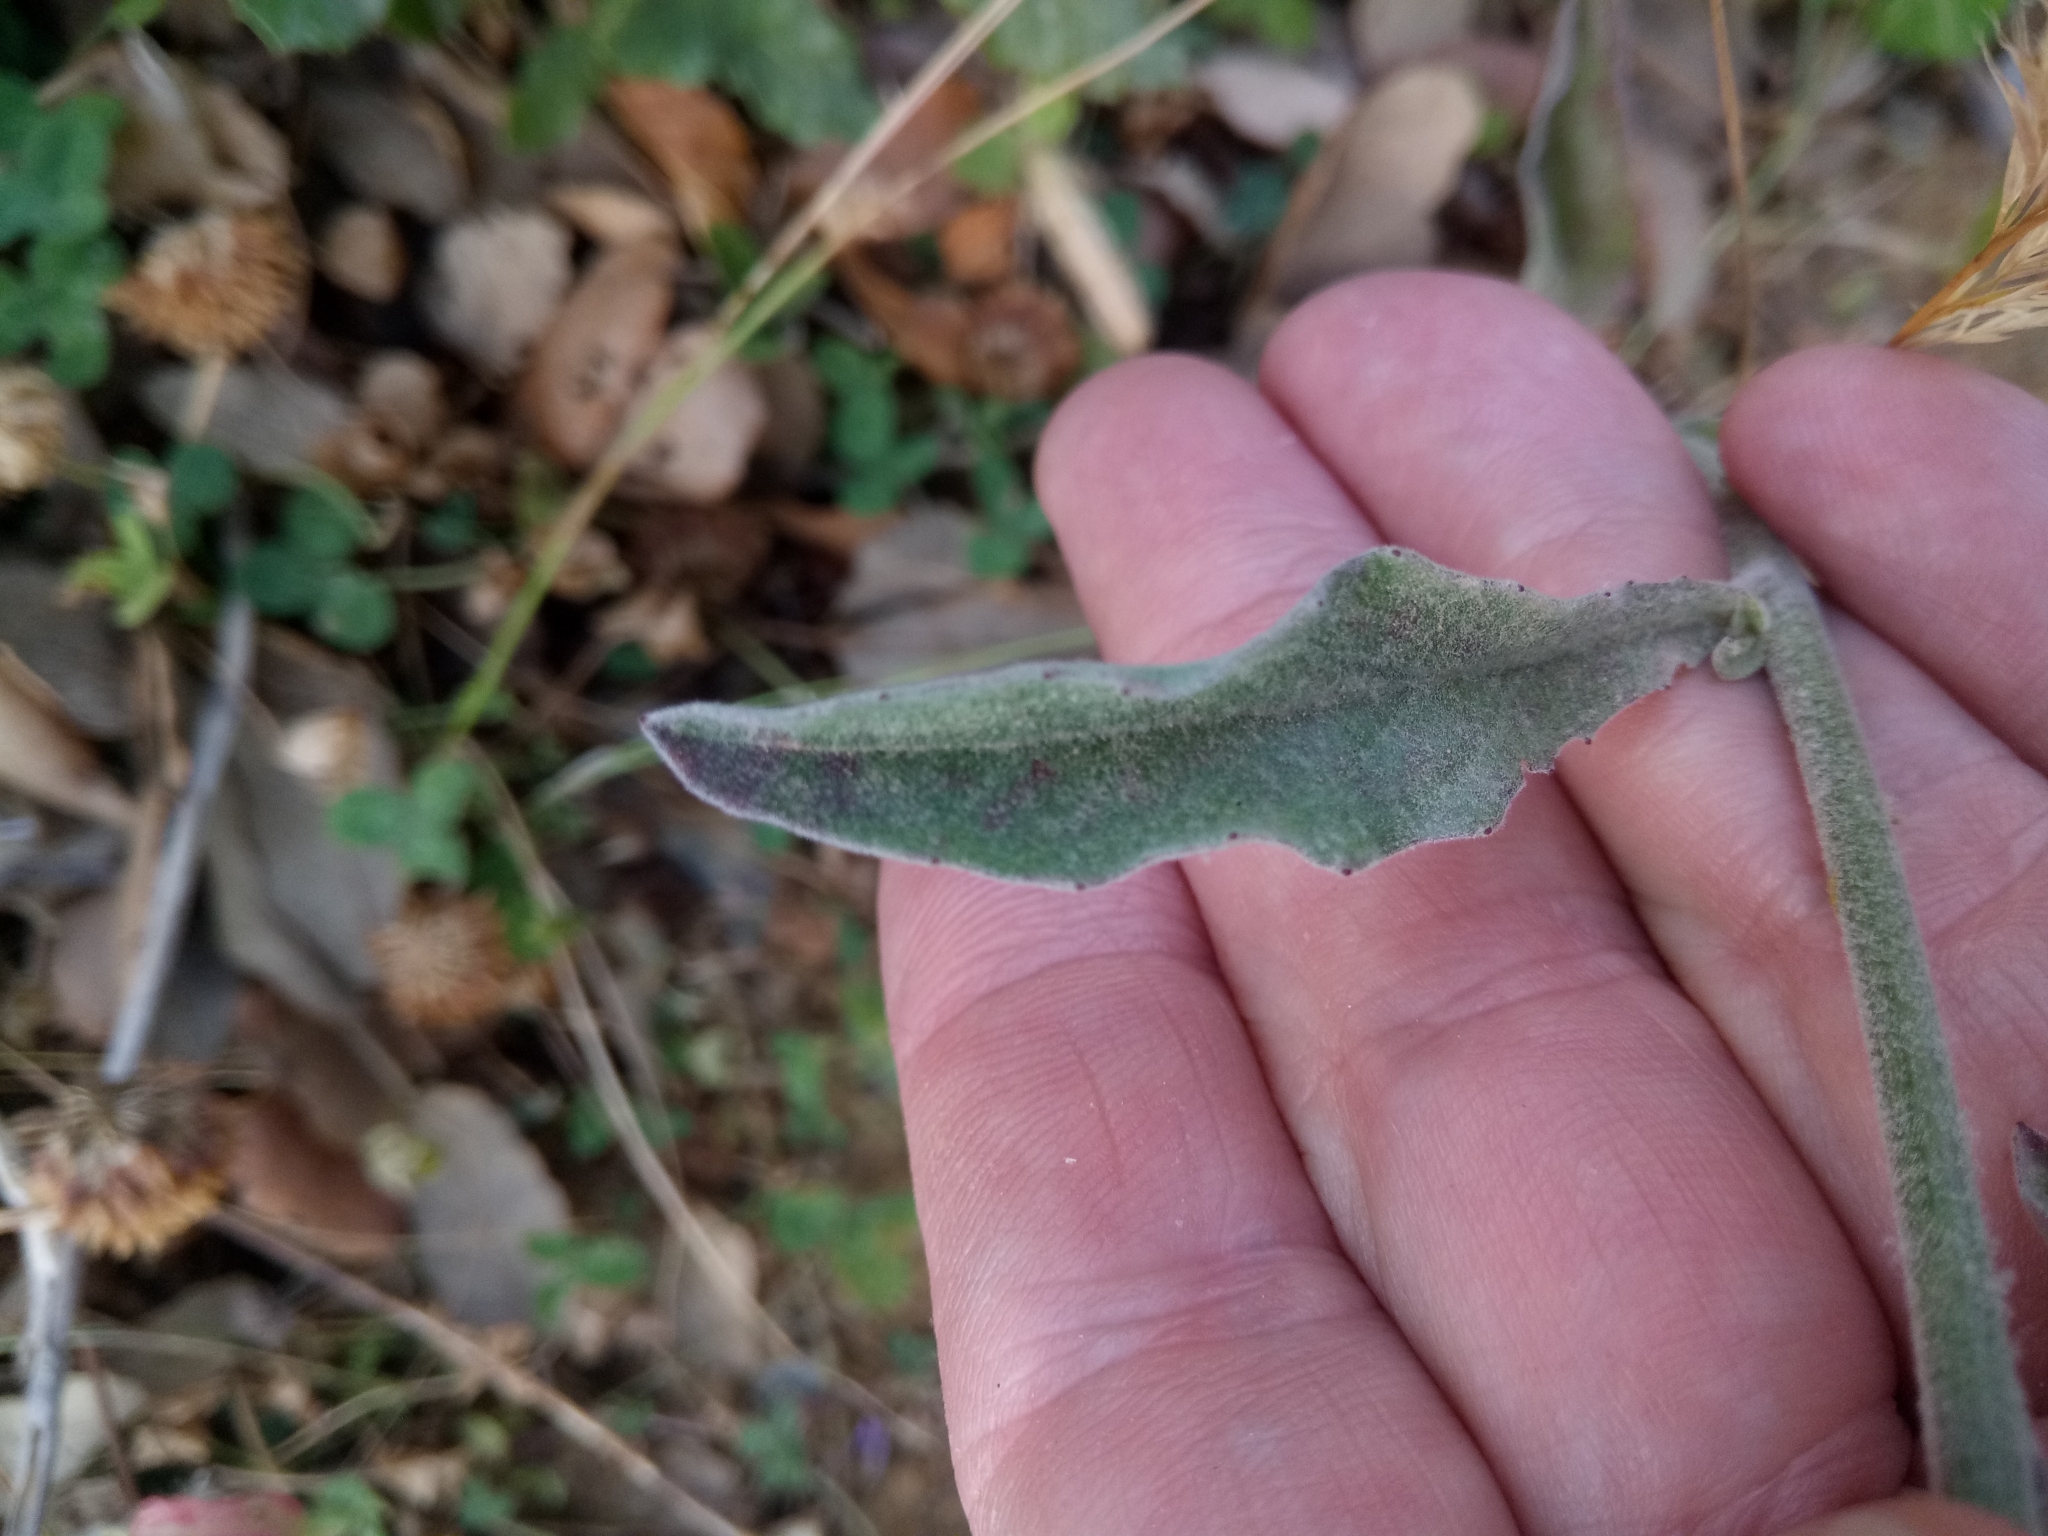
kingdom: Plantae
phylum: Tracheophyta
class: Magnoliopsida
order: Asterales
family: Asteraceae
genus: Andryala
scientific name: Andryala integrifolia
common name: Common andryala
